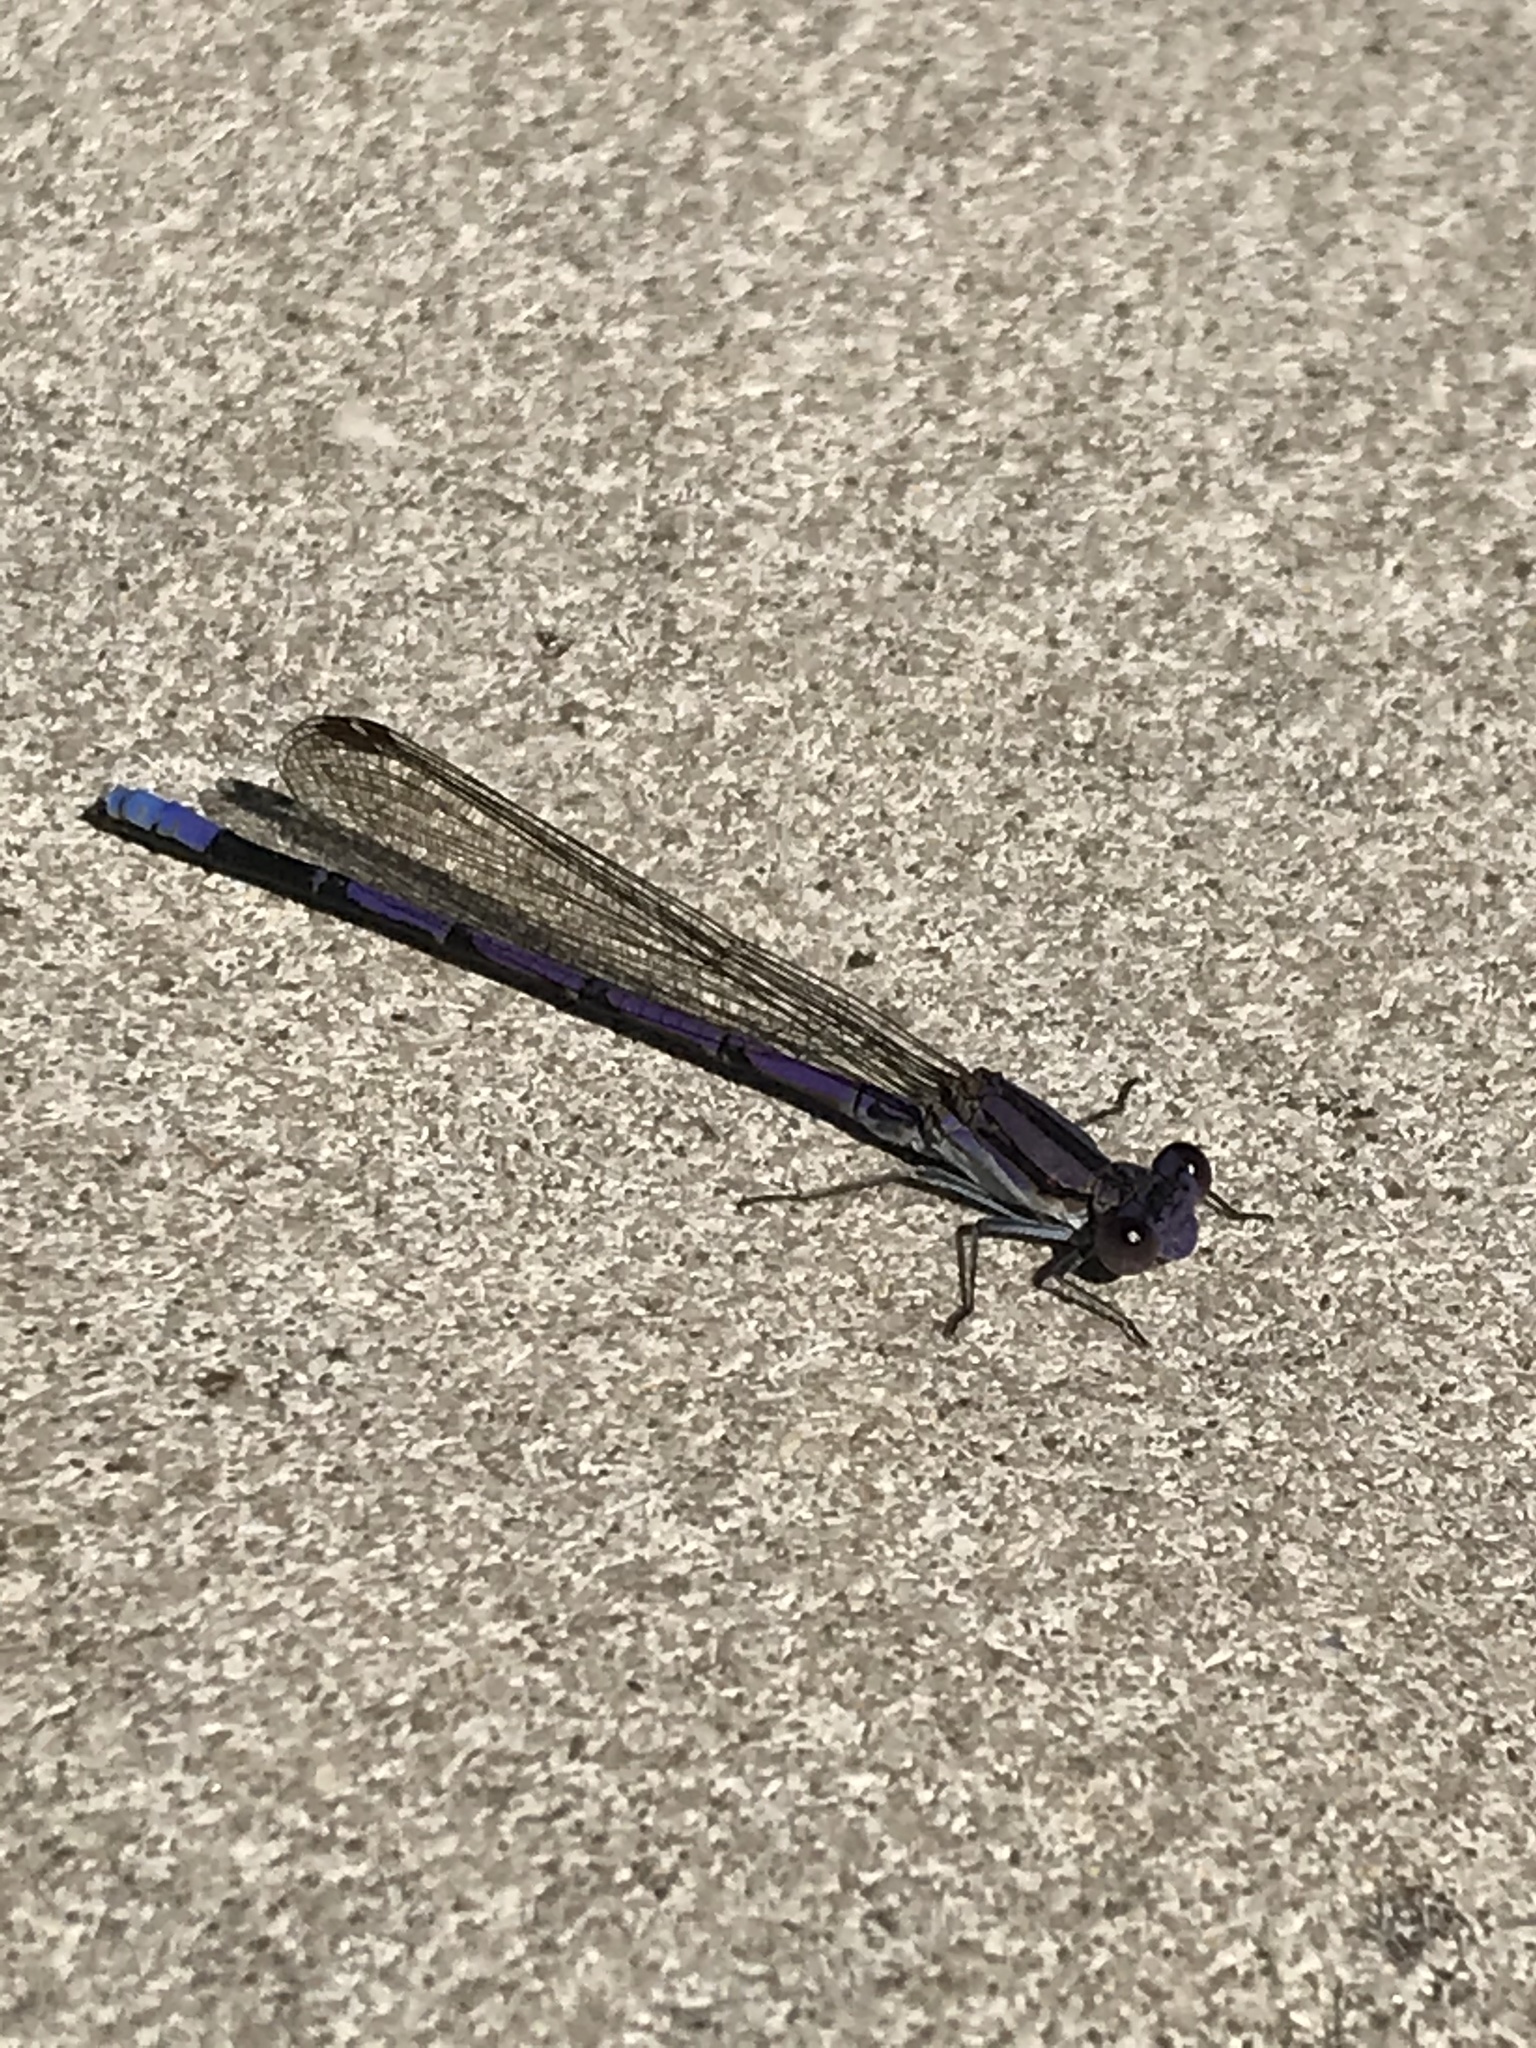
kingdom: Animalia
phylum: Arthropoda
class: Insecta
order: Odonata
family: Coenagrionidae
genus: Argia
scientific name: Argia fumipennis
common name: Variable dancer
